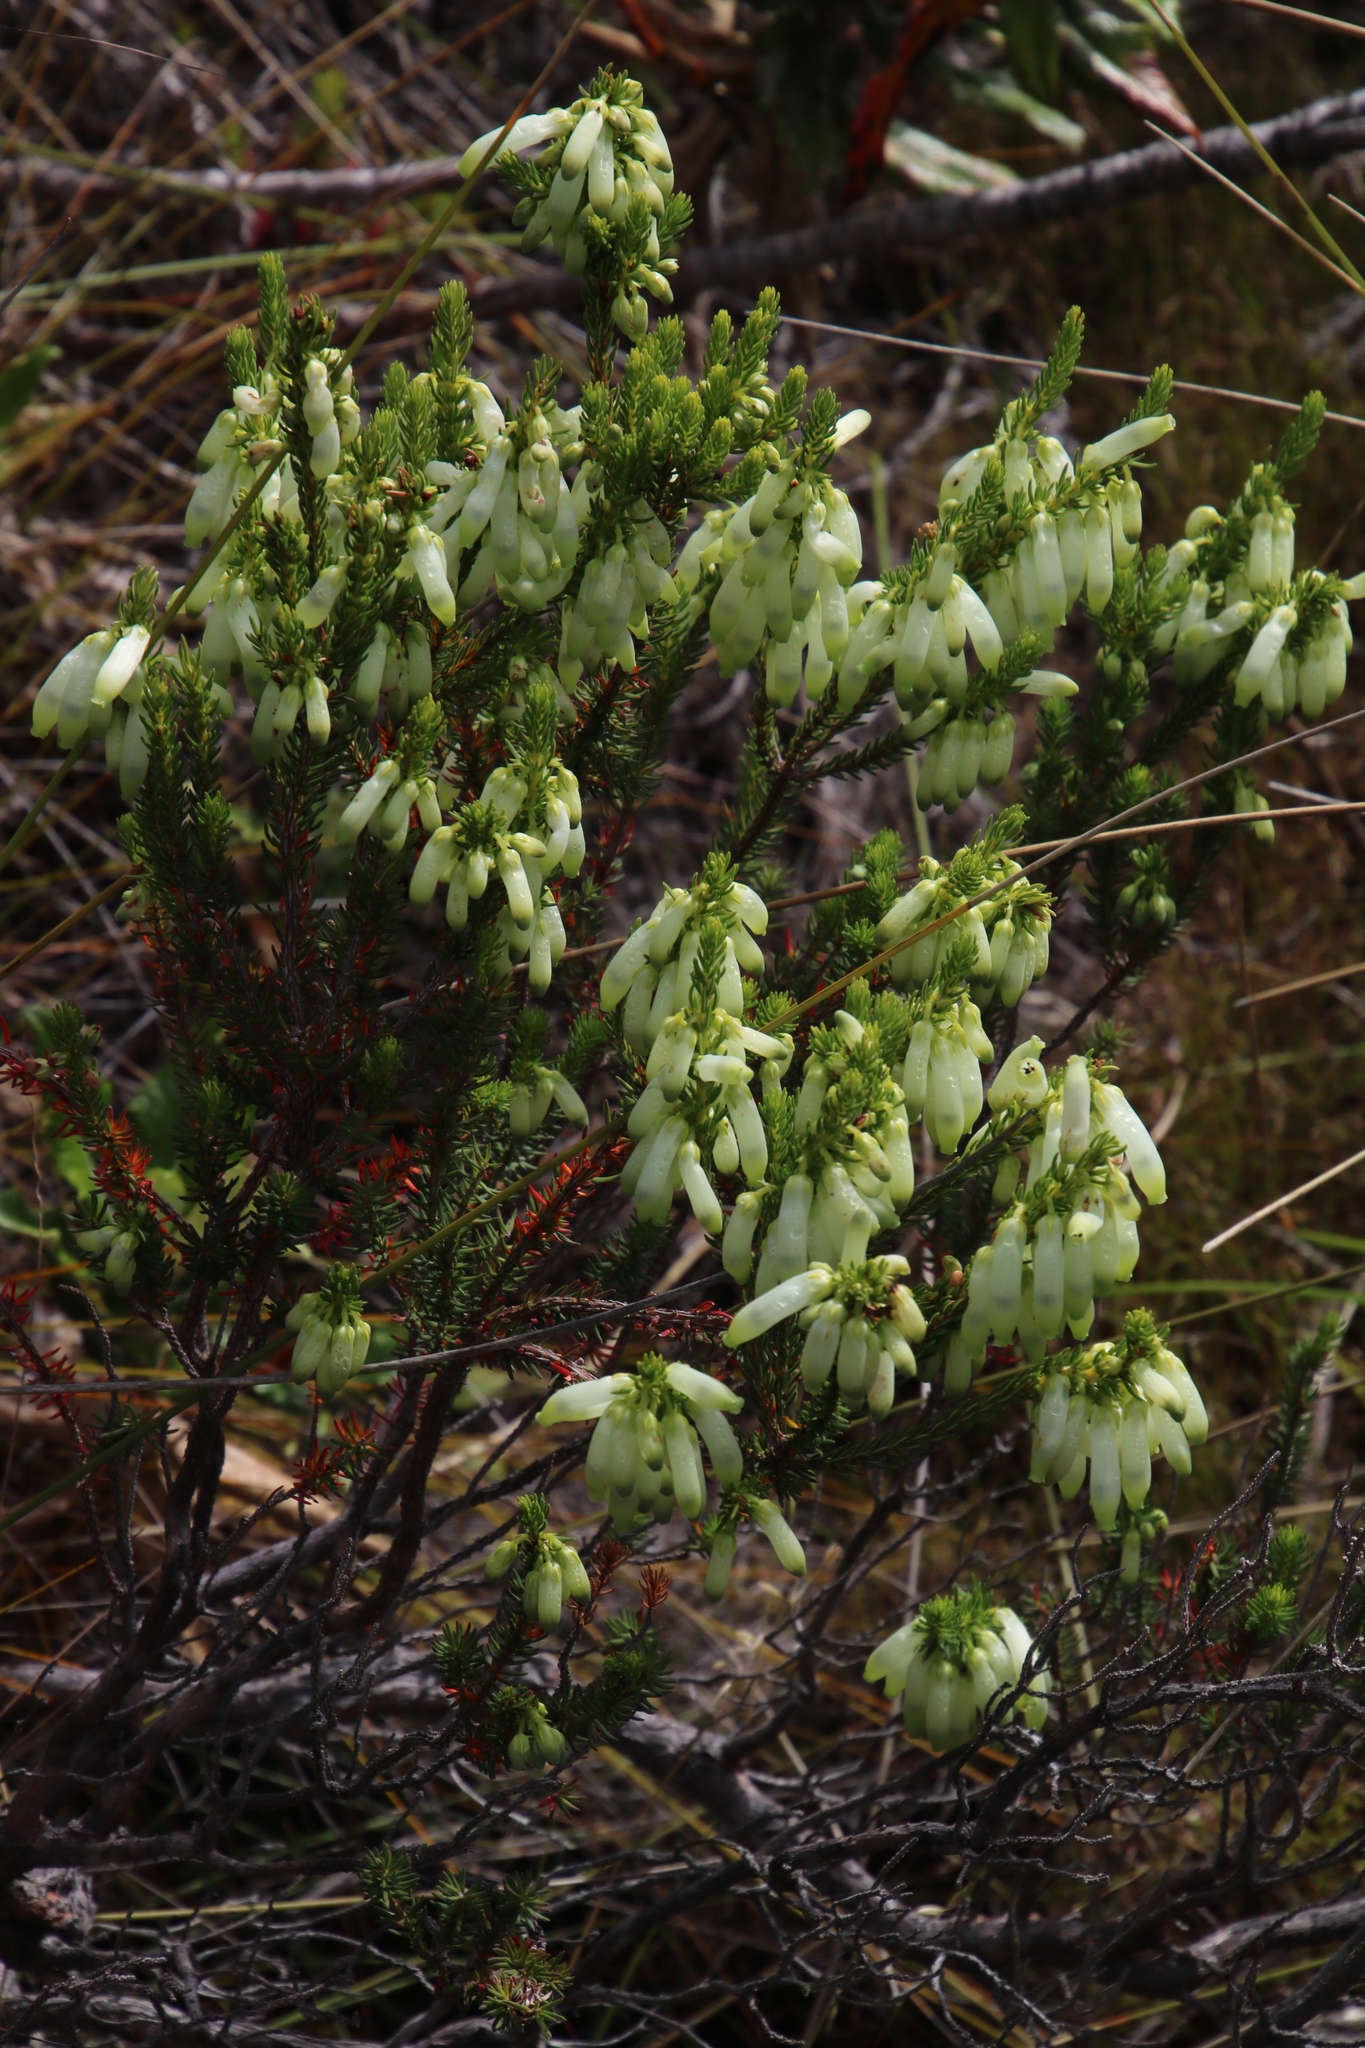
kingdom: Plantae
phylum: Tracheophyta
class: Magnoliopsida
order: Ericales
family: Ericaceae
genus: Erica
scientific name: Erica mammosa
